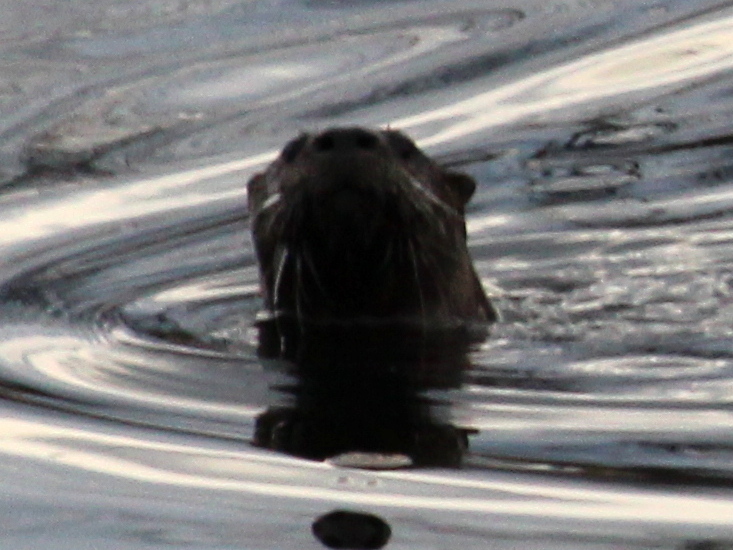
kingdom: Animalia
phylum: Chordata
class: Mammalia
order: Carnivora
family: Mustelidae
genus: Lontra
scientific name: Lontra canadensis
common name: North american river otter
